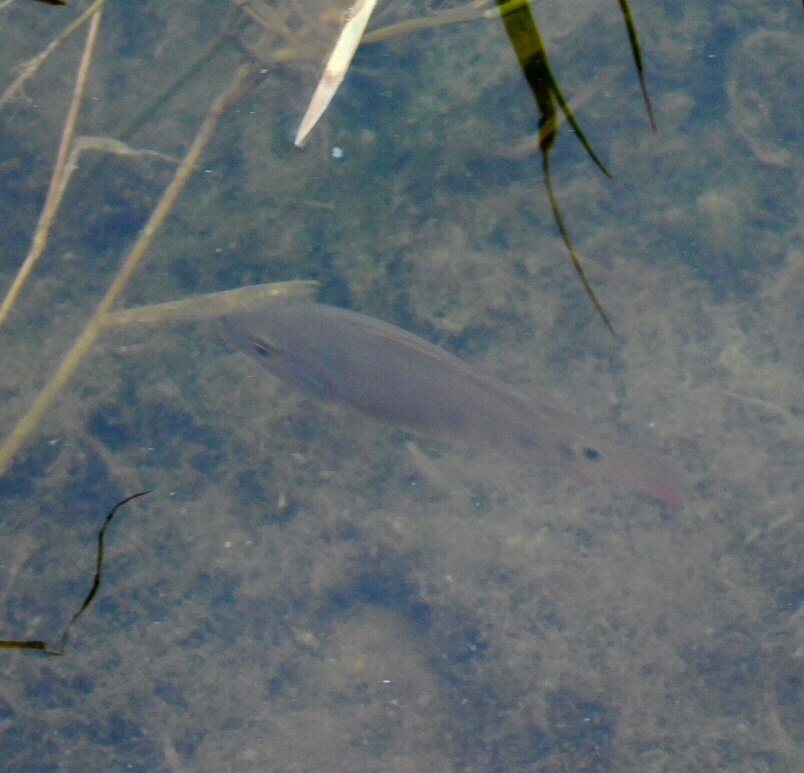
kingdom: Animalia
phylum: Chordata
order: Perciformes
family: Cichlidae
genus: Mayaheros
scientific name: Mayaheros urophthalmus
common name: Mayan cichlid
